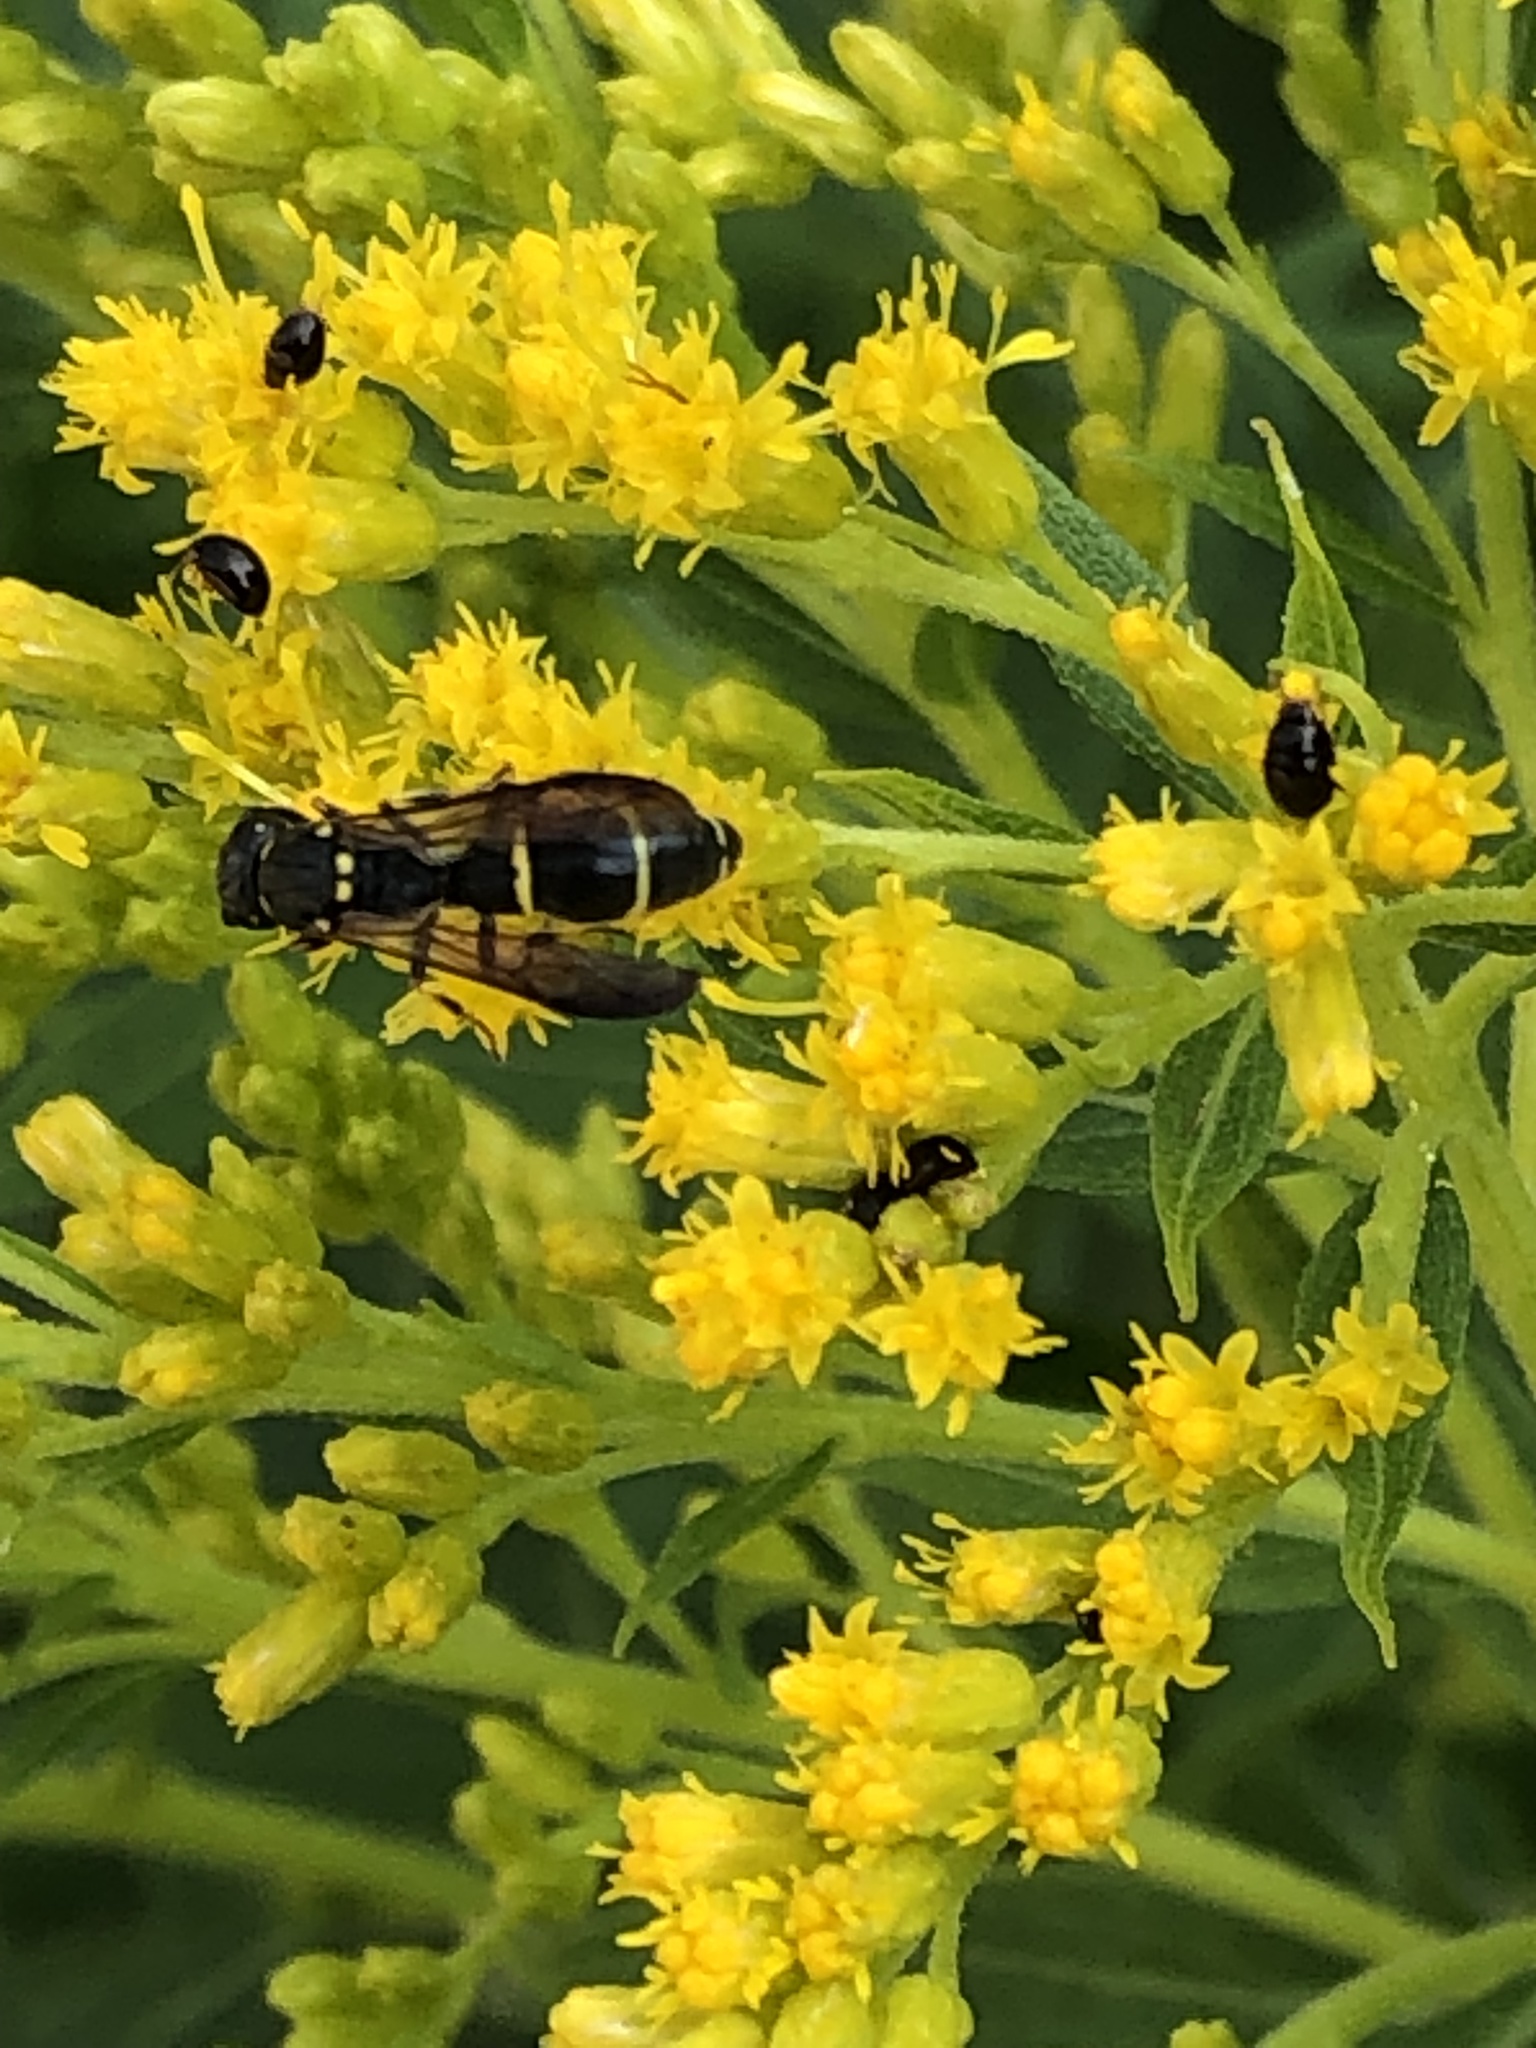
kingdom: Animalia
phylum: Arthropoda
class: Insecta
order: Hymenoptera
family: Eumenidae
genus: Symmorphus
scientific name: Symmorphus
